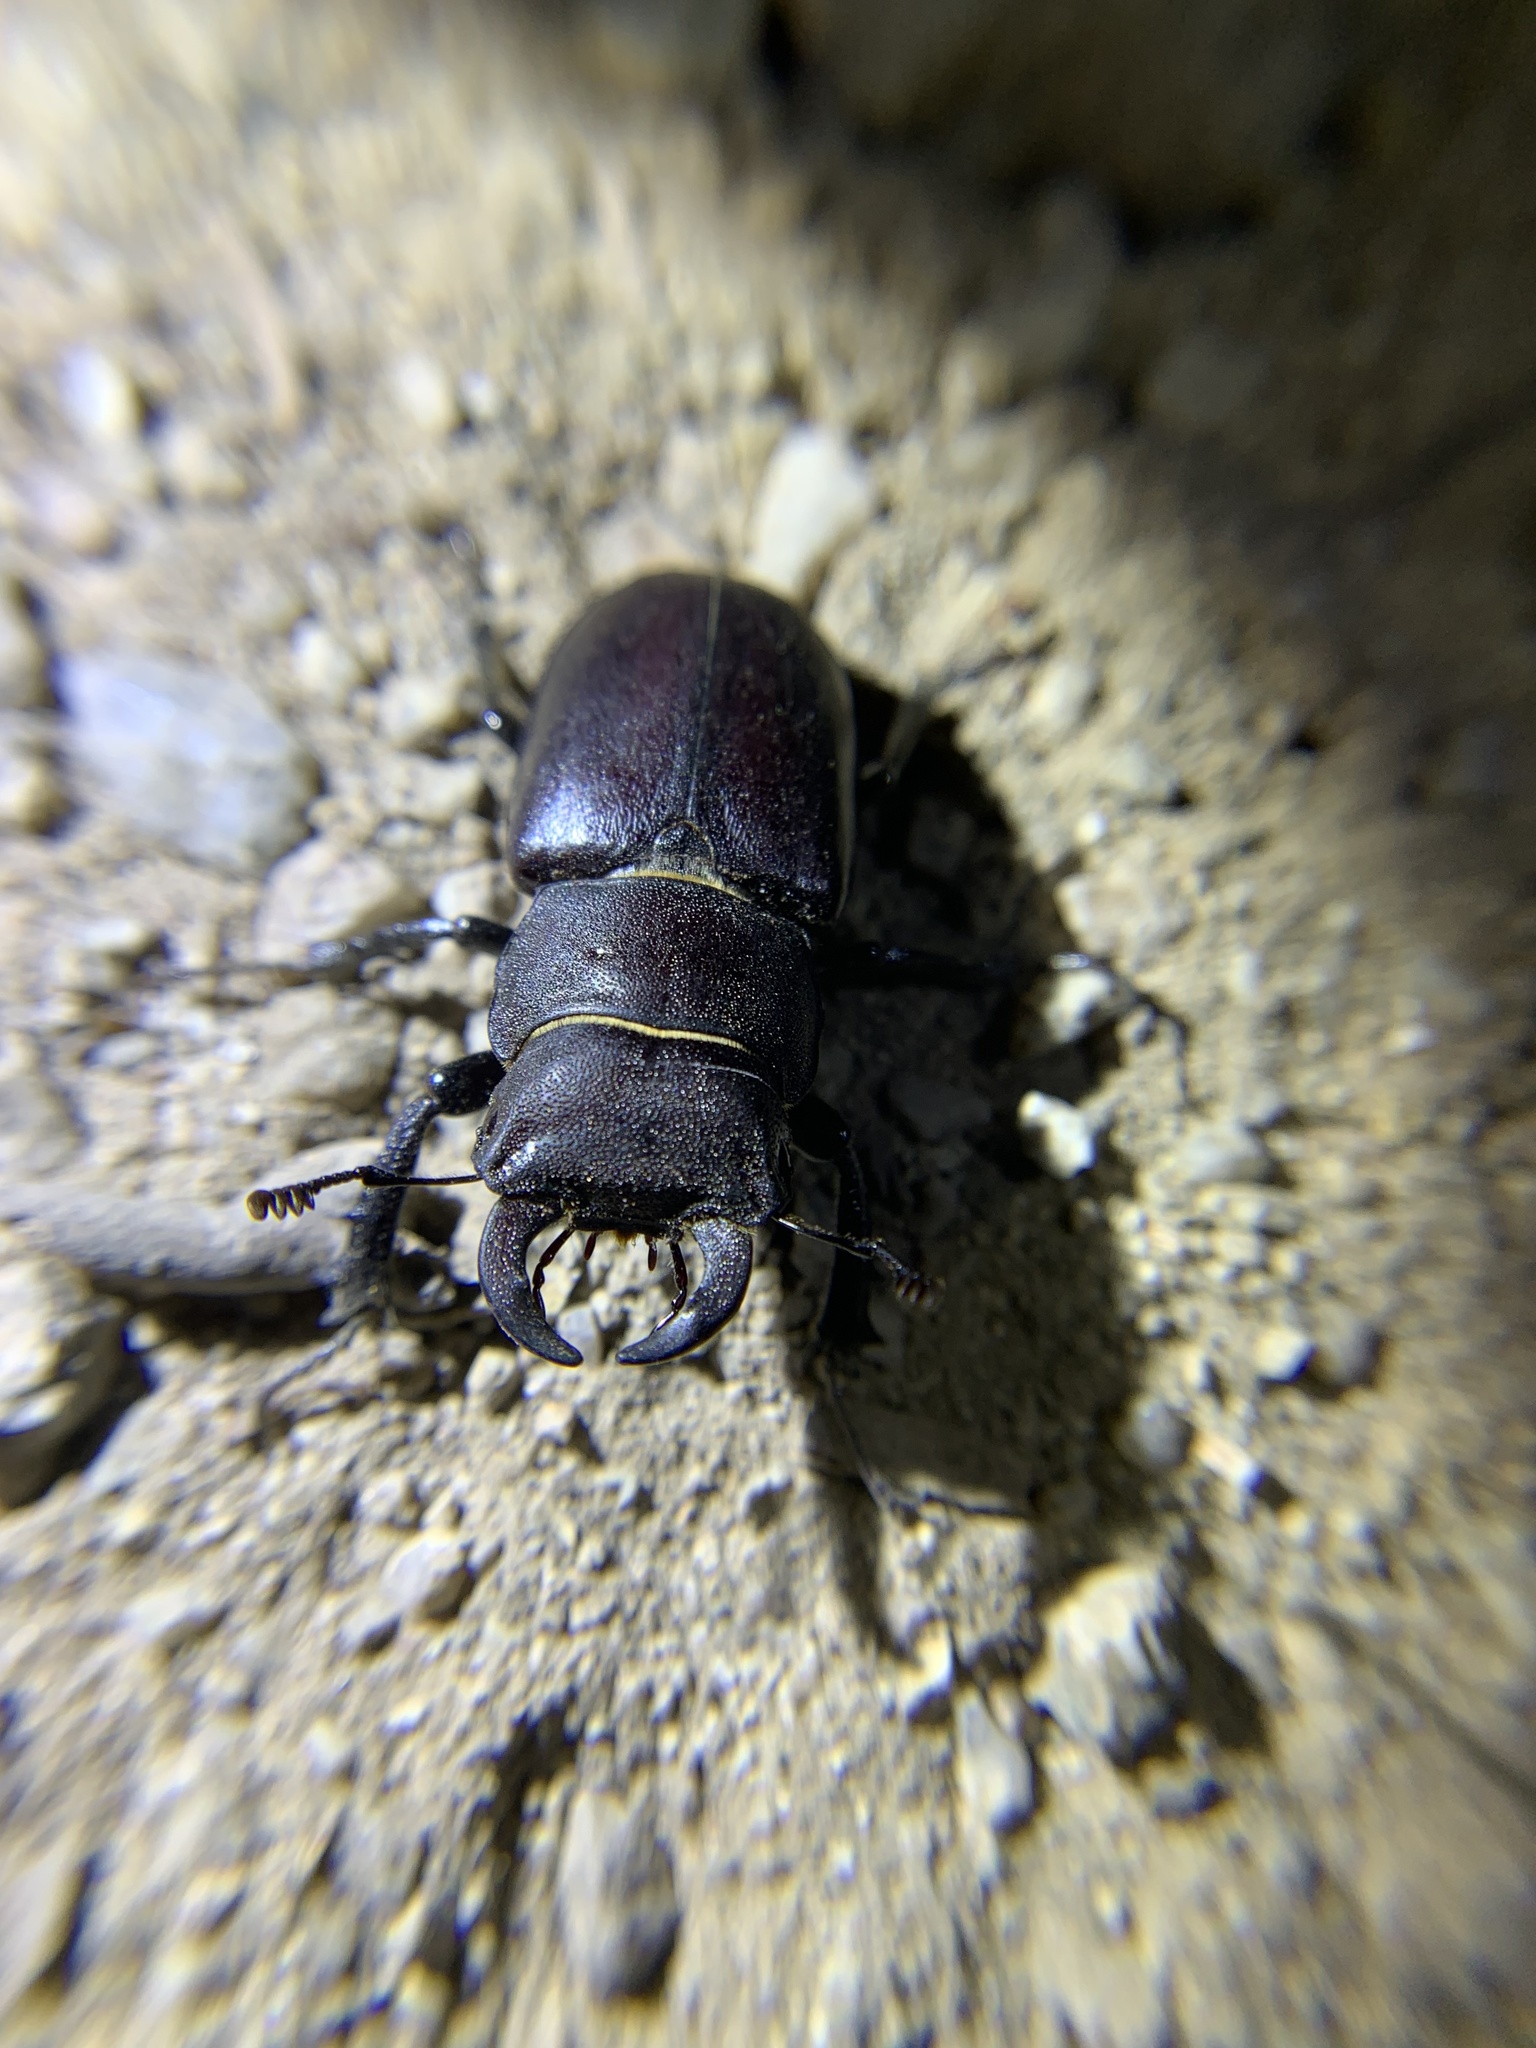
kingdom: Animalia
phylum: Arthropoda
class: Insecta
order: Coleoptera
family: Lucanidae
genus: Lucanus
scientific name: Lucanus mazama
